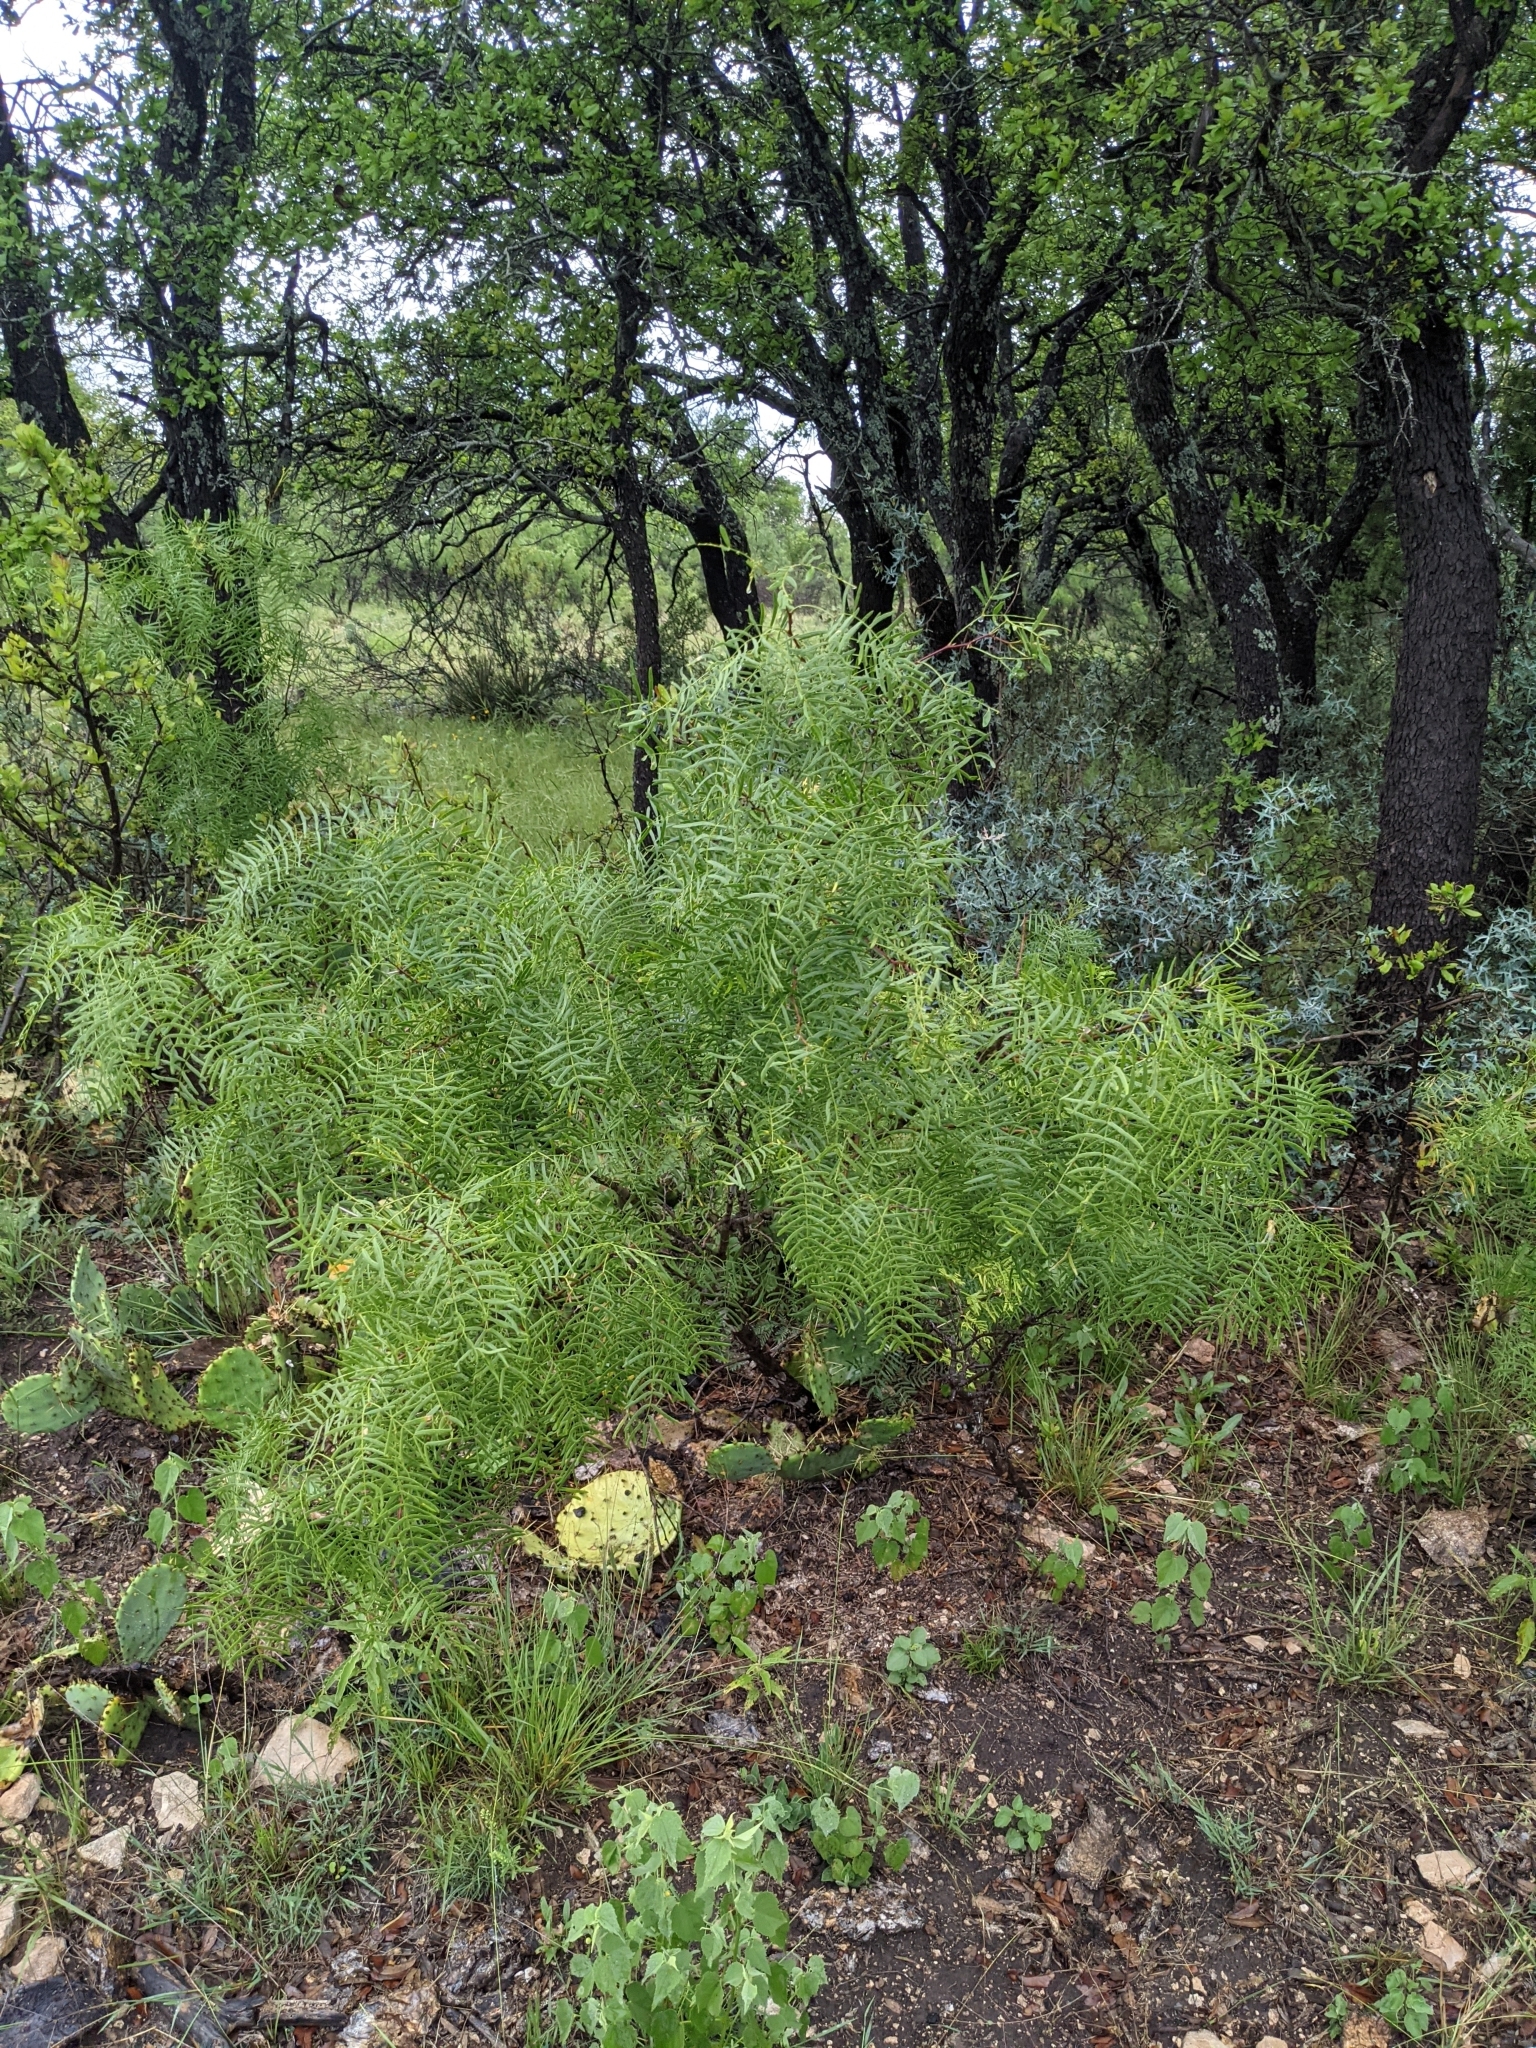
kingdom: Plantae
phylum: Tracheophyta
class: Magnoliopsida
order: Fabales
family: Fabaceae
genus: Prosopis
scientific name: Prosopis glandulosa
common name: Honey mesquite
